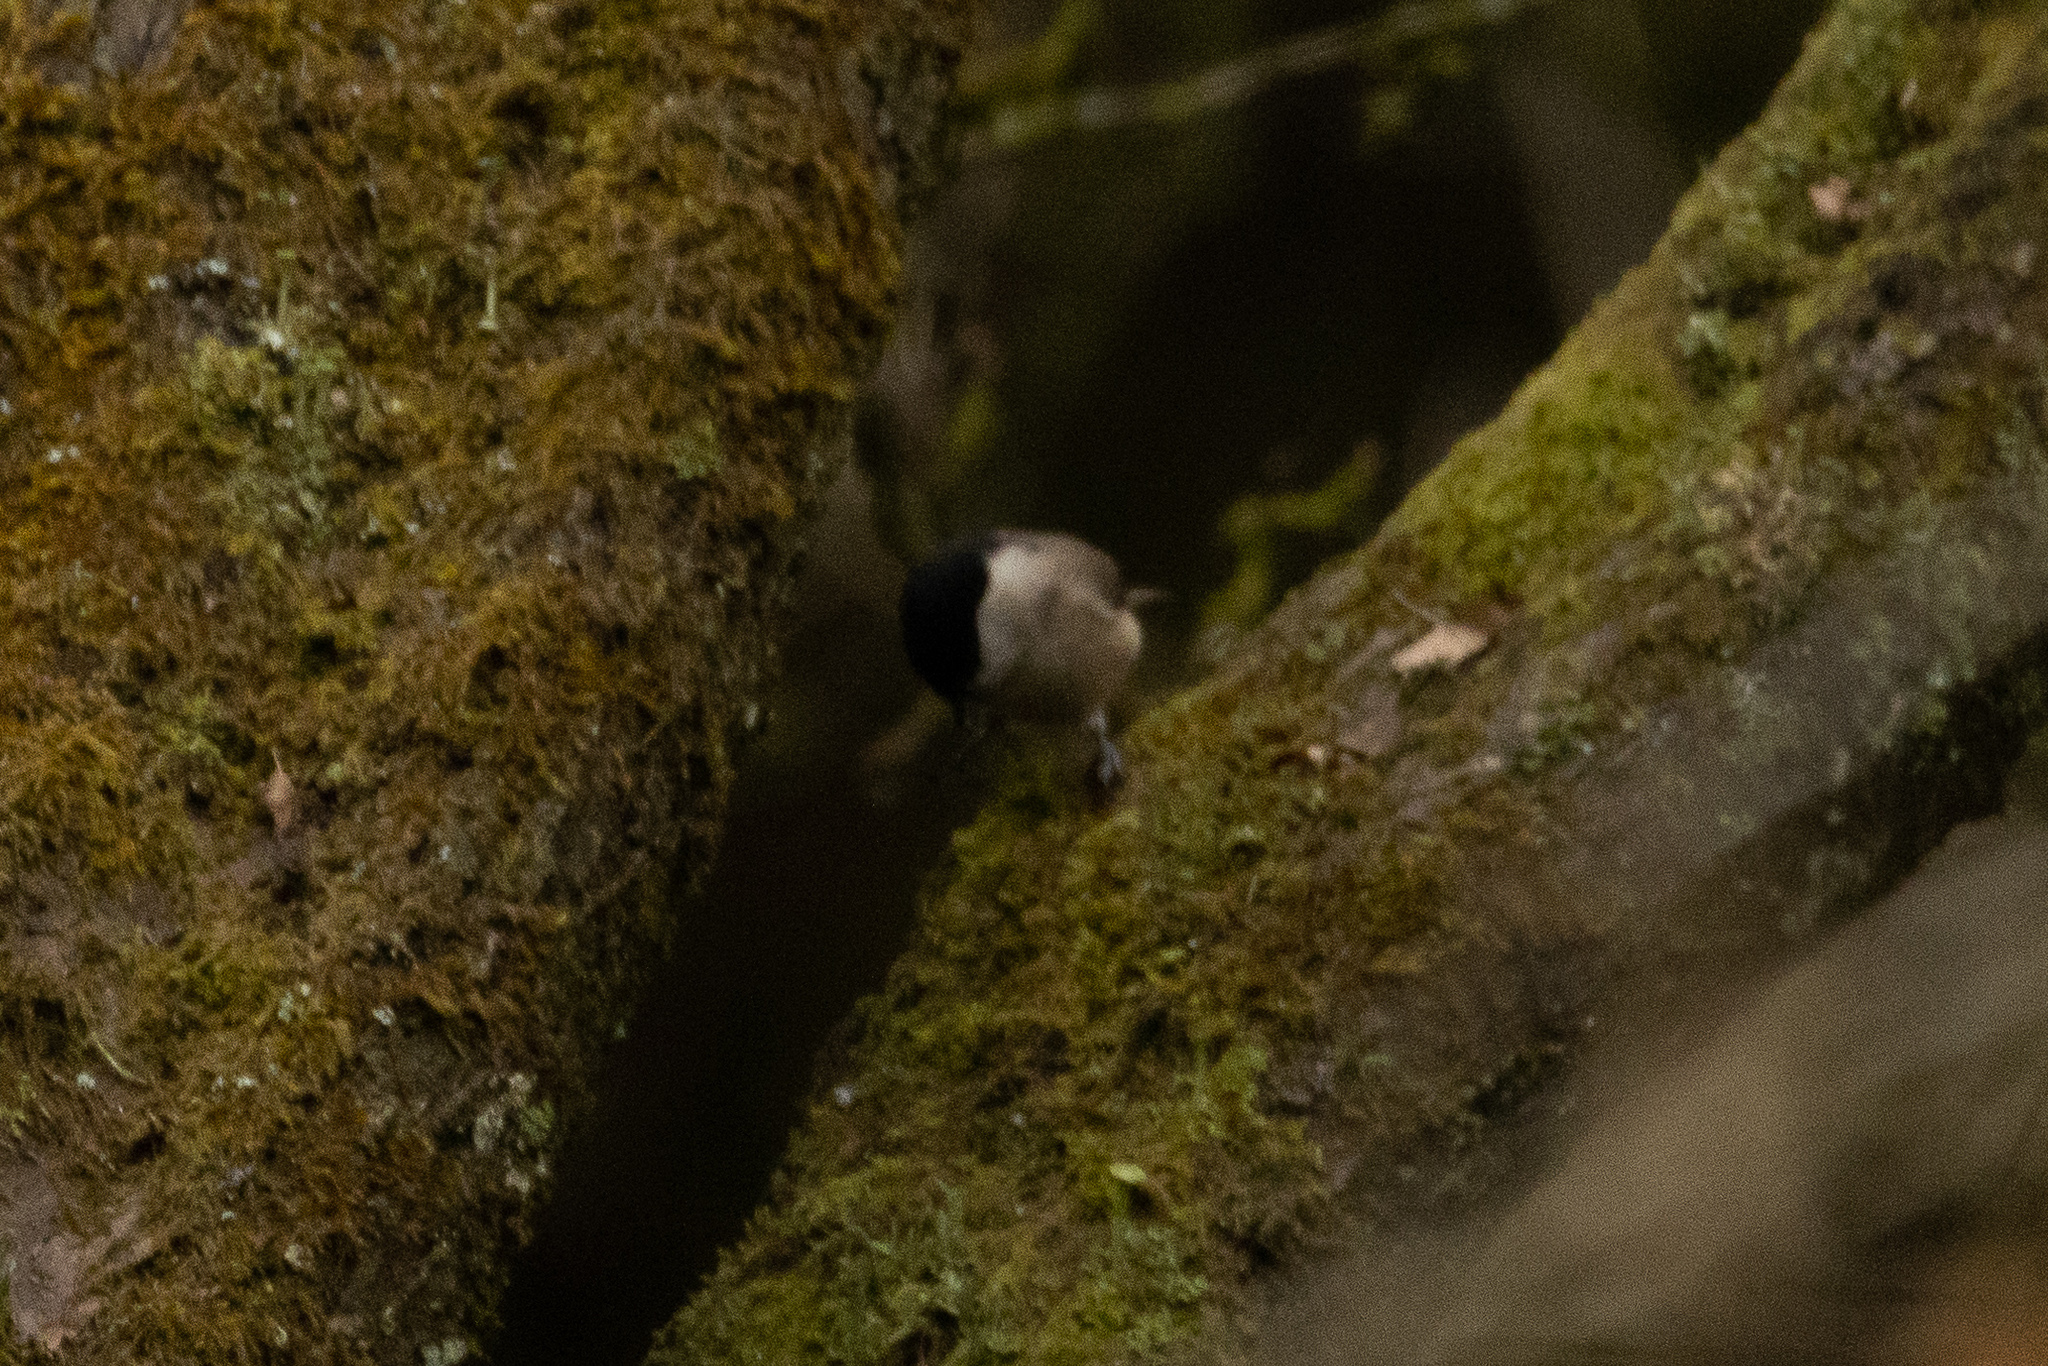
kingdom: Animalia
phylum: Chordata
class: Aves
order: Passeriformes
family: Paridae
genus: Poecile
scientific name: Poecile palustris
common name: Marsh tit
